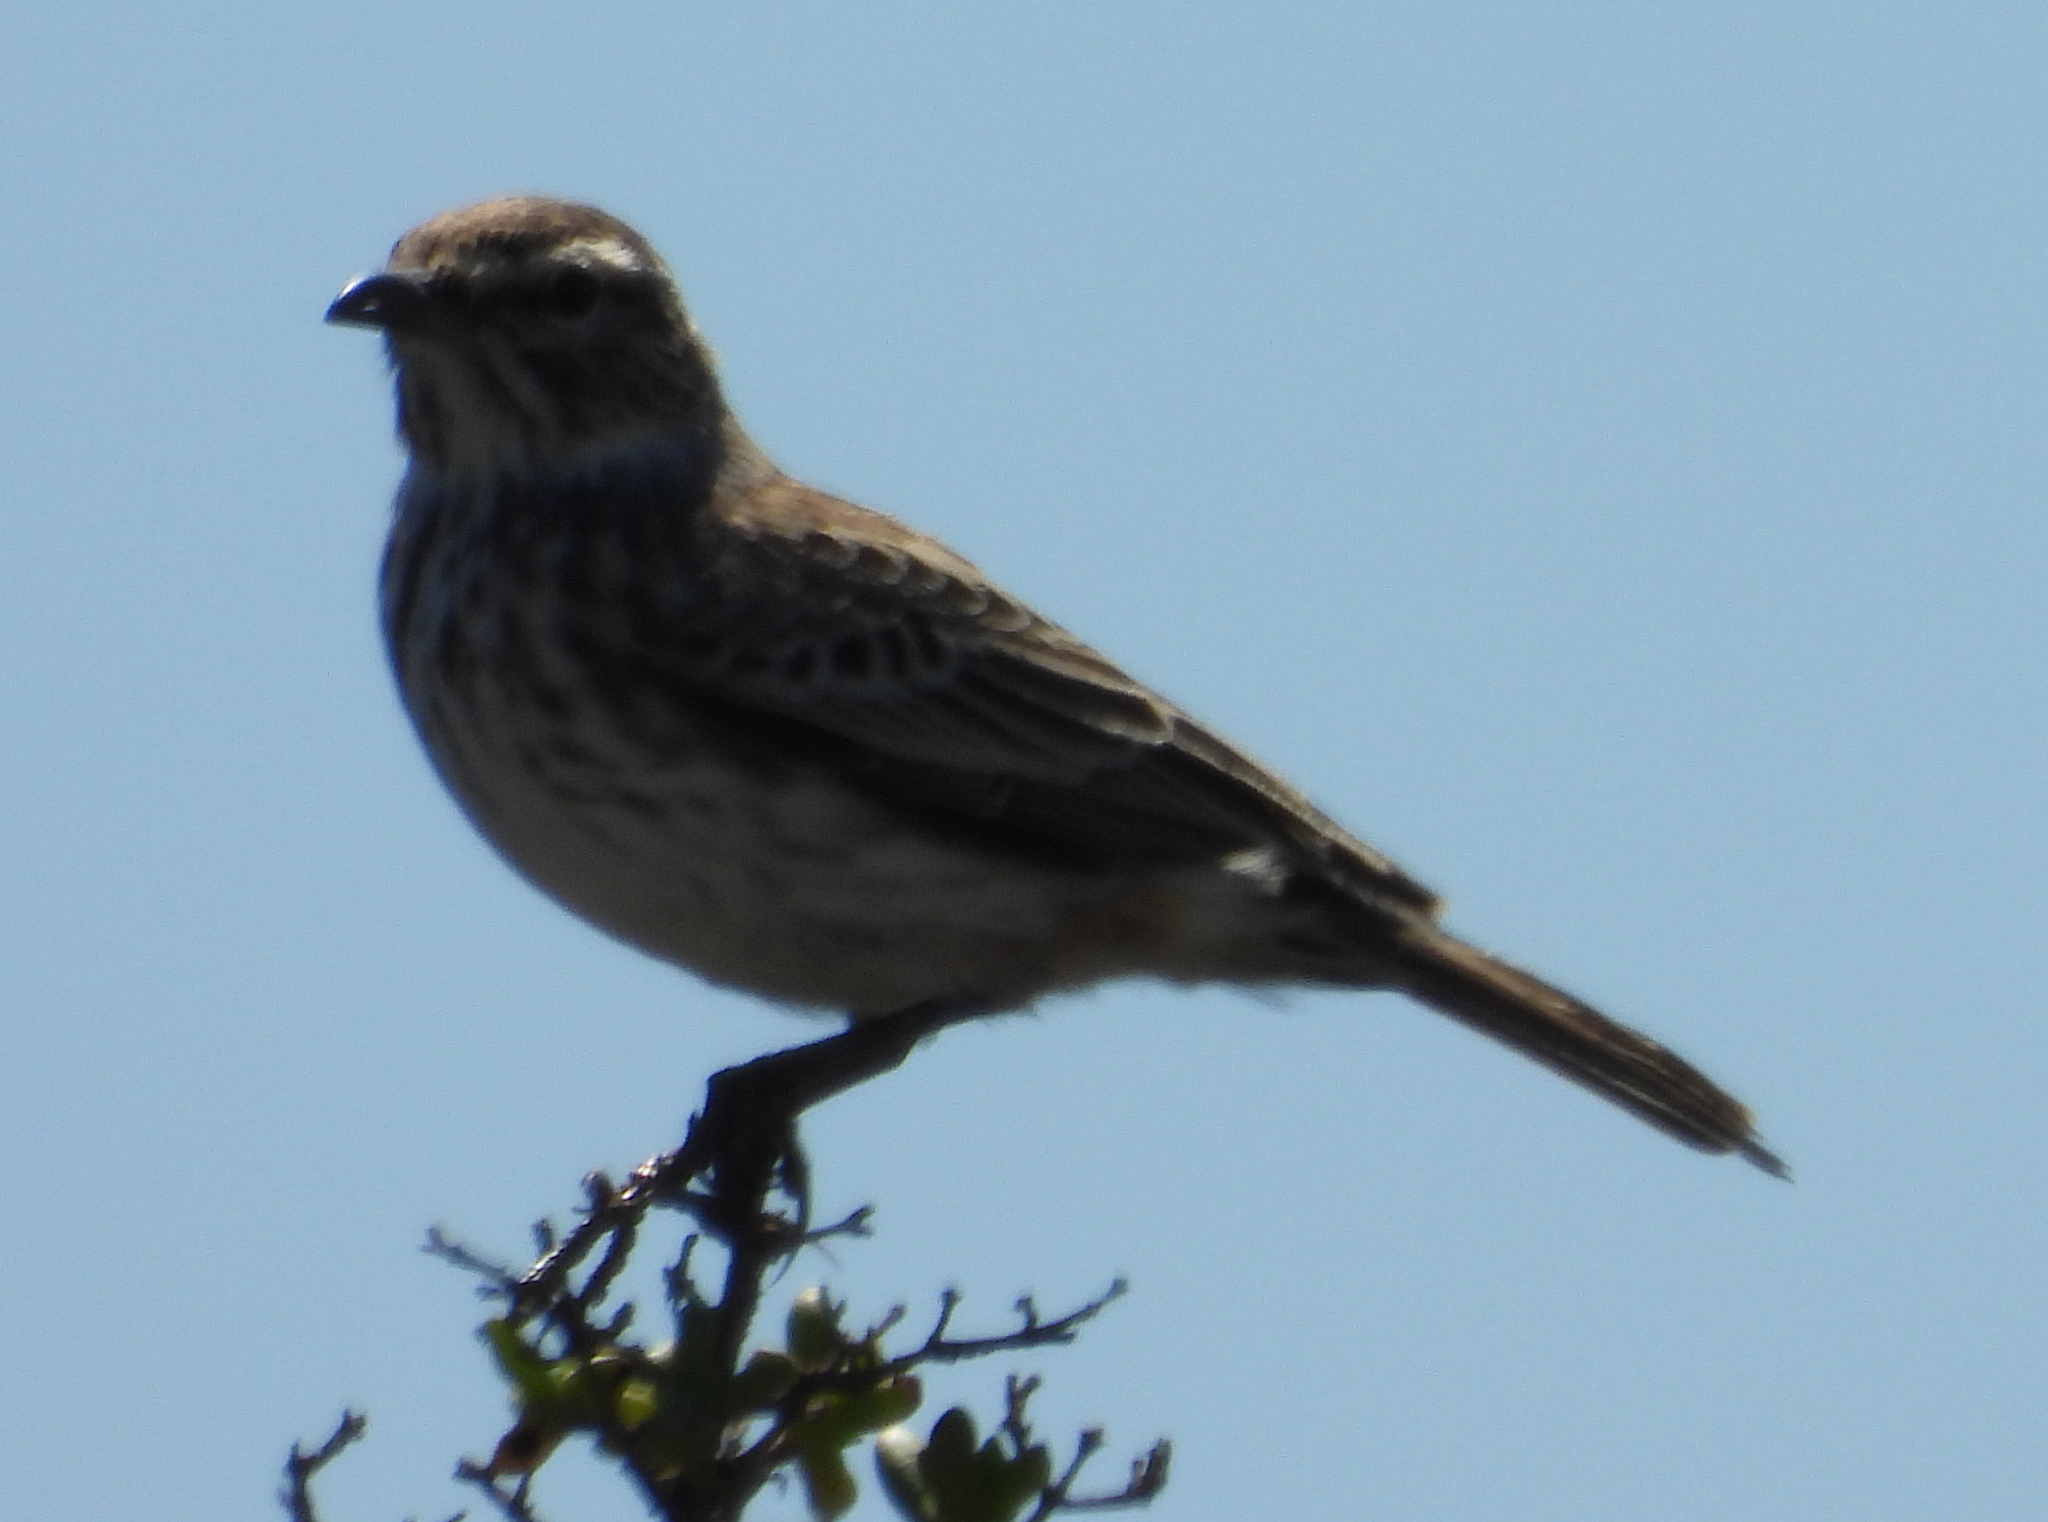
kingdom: Animalia
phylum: Chordata
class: Aves
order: Passeriformes
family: Alaudidae
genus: Calendulauda
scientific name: Calendulauda albescens
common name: Karoo lark
